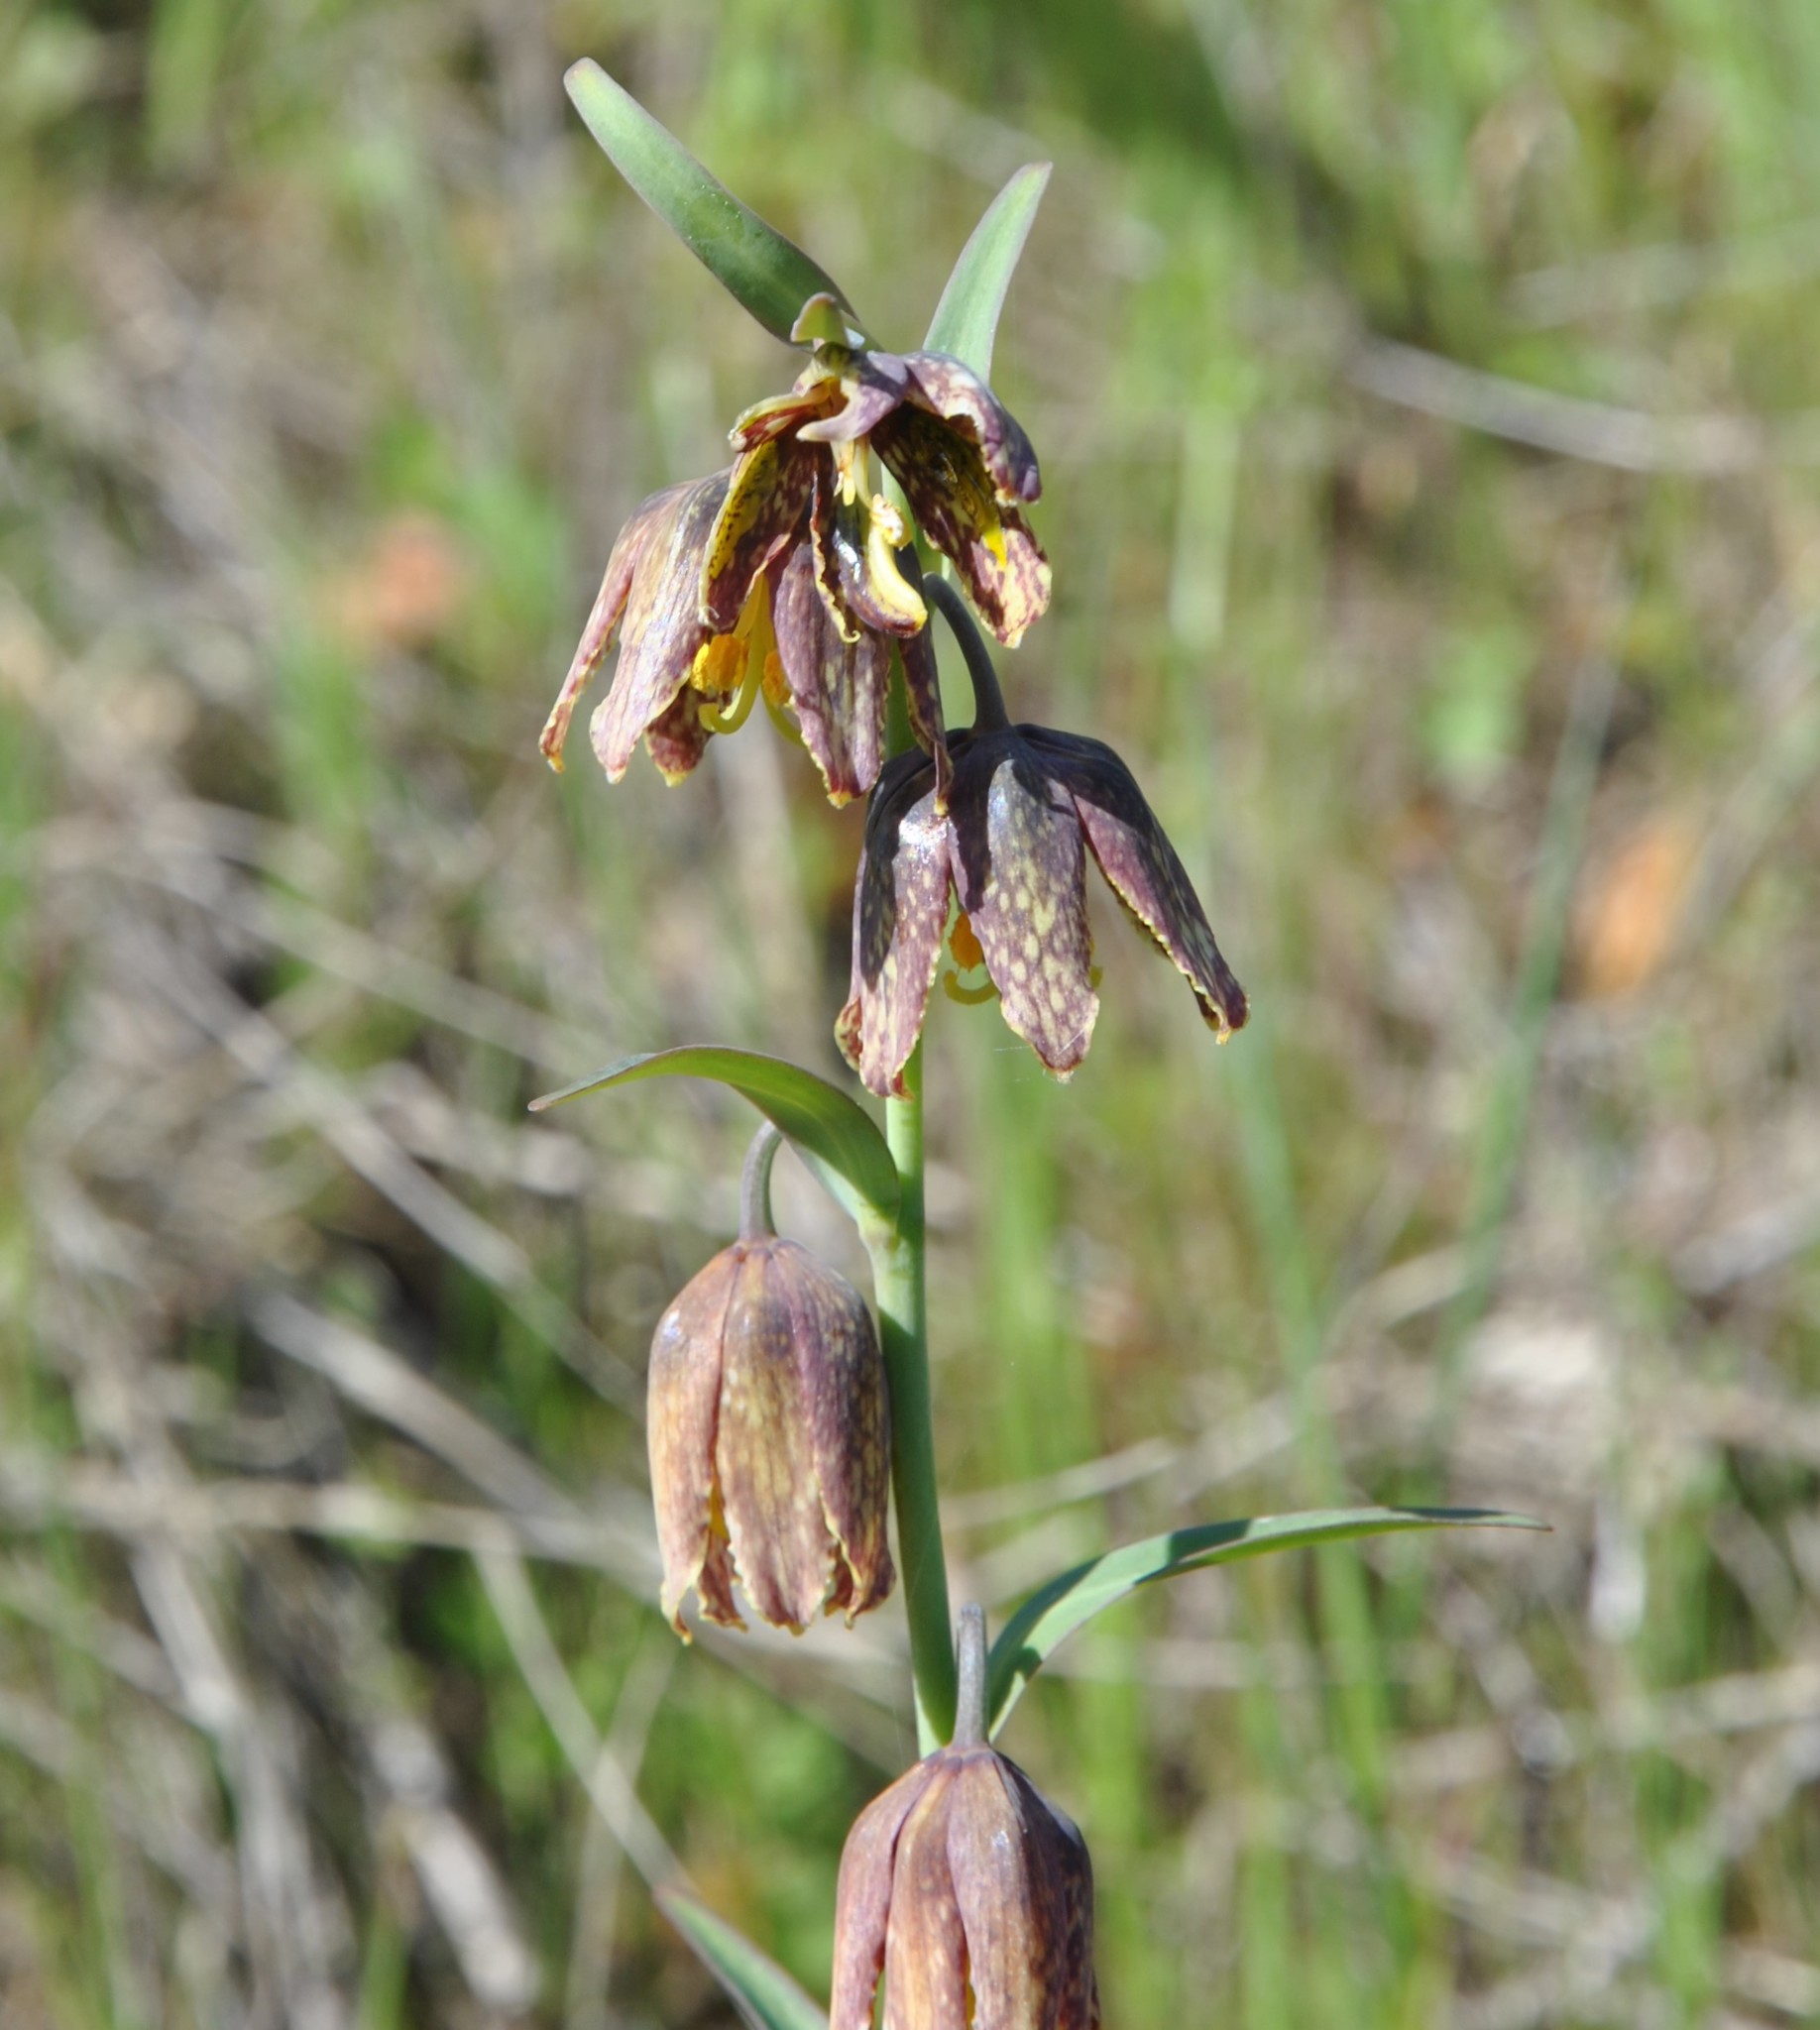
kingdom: Plantae
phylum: Tracheophyta
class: Liliopsida
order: Liliales
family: Liliaceae
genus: Fritillaria
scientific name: Fritillaria affinis
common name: Ojai fritillary
